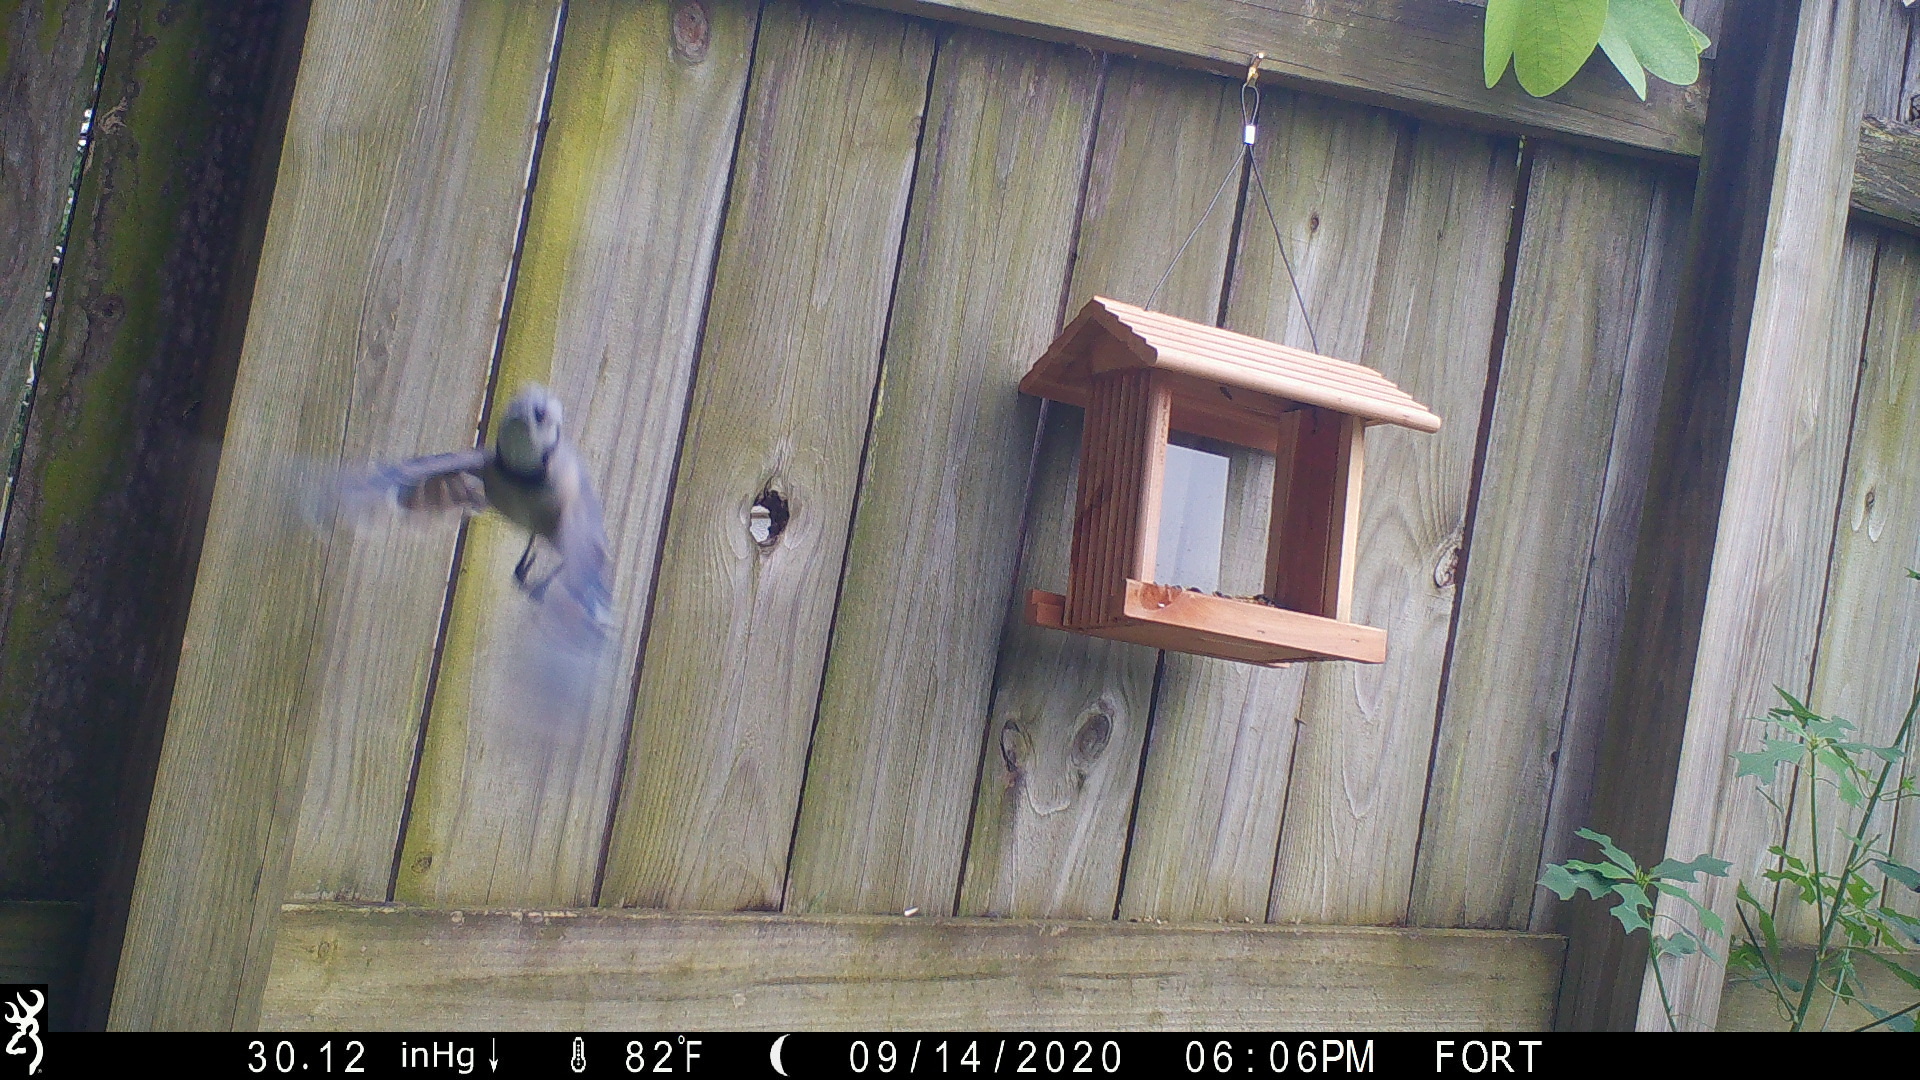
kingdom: Animalia
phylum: Chordata
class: Aves
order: Passeriformes
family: Corvidae
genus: Cyanocitta
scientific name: Cyanocitta cristata
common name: Blue jay
